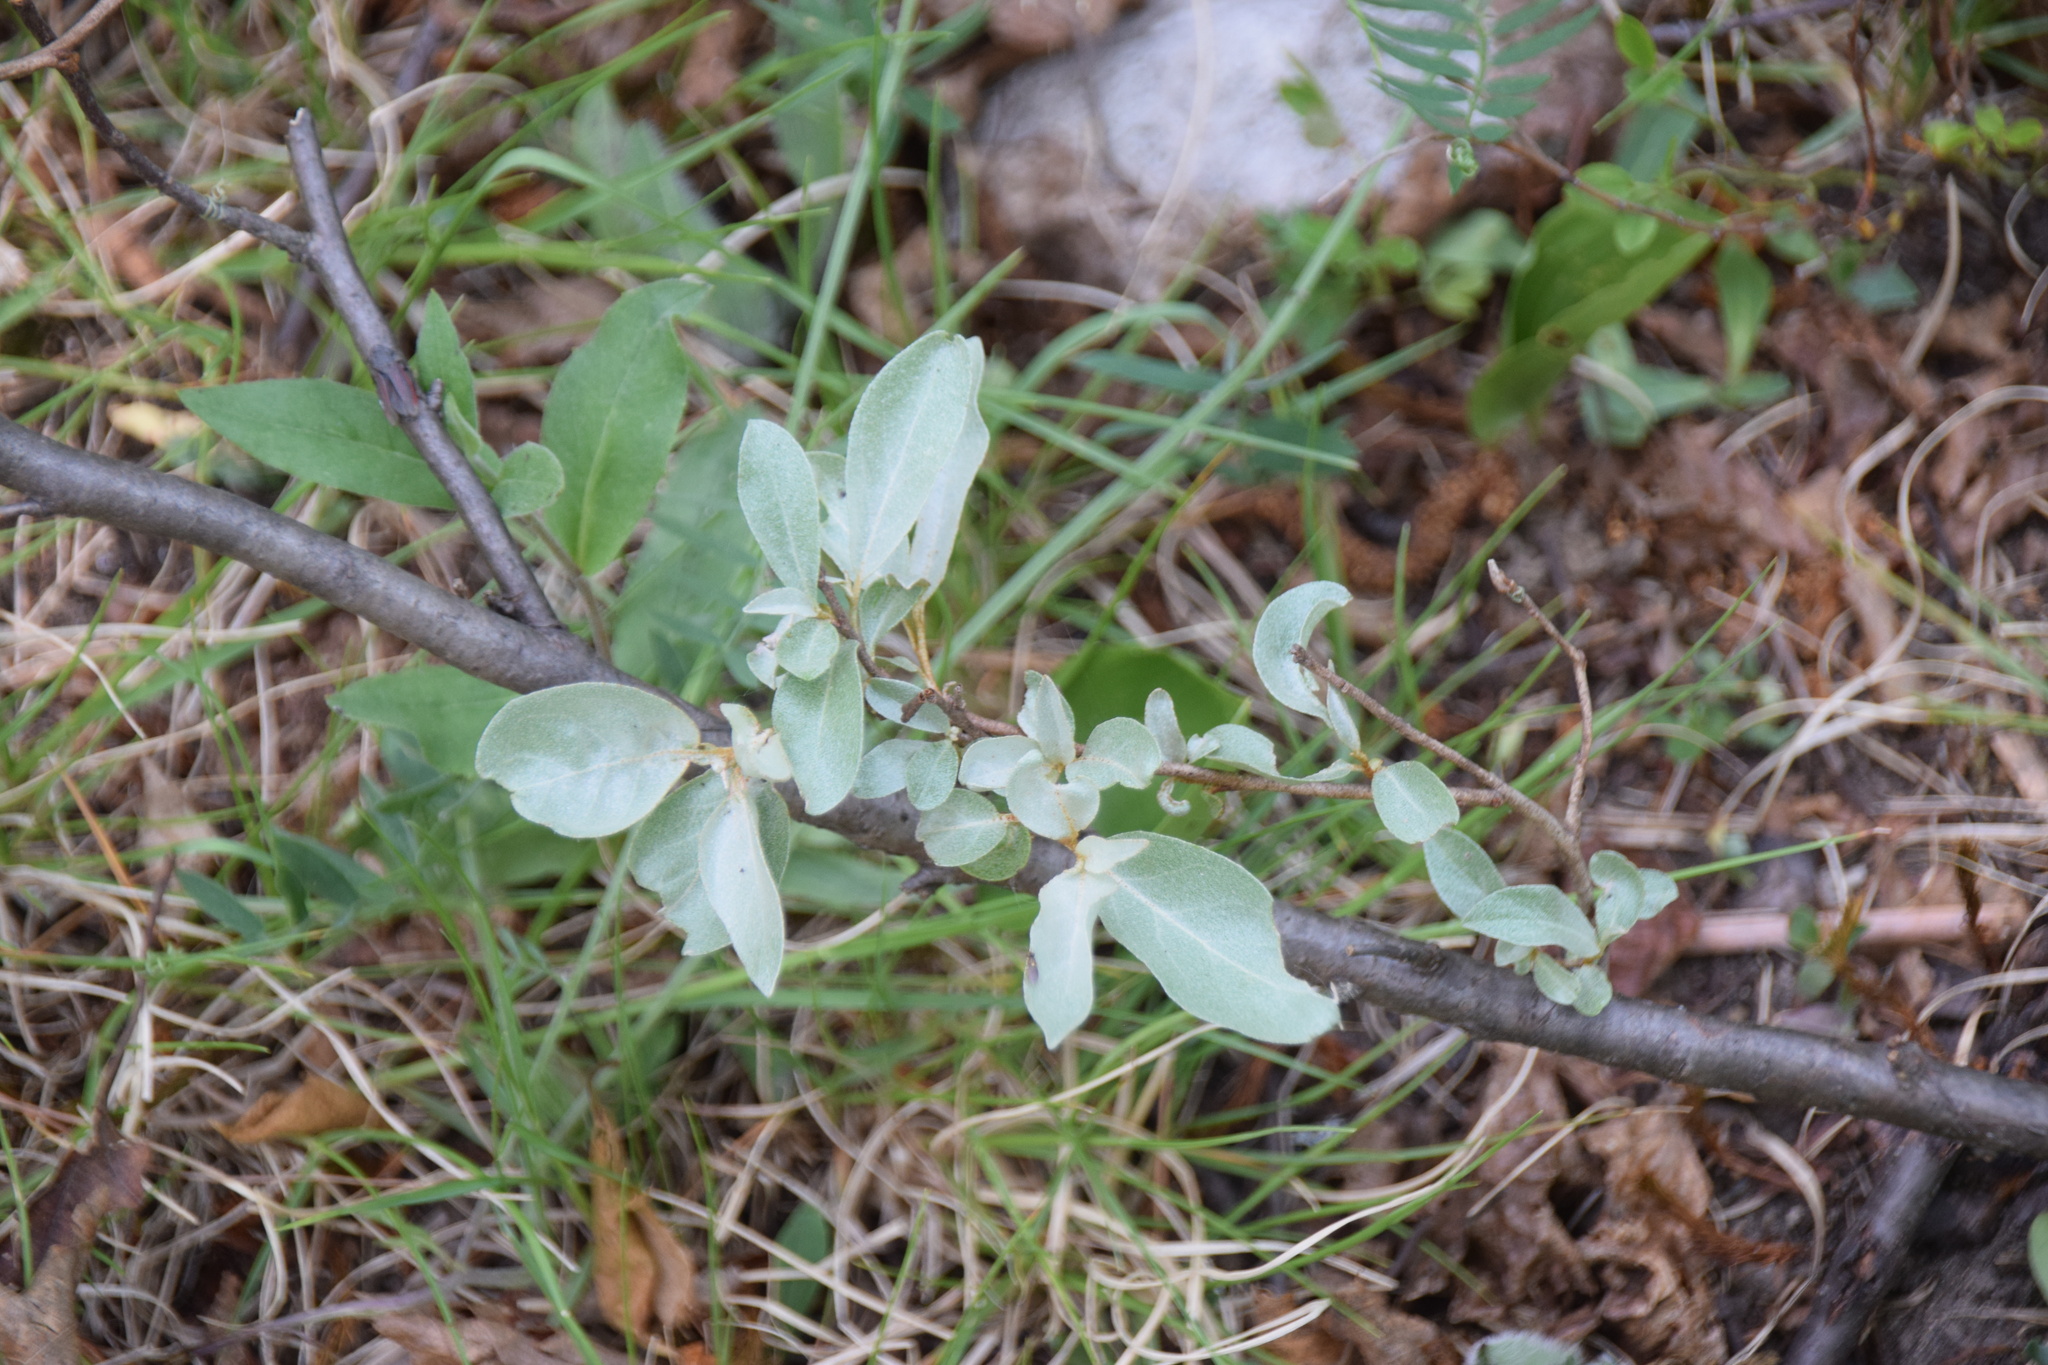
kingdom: Plantae
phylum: Tracheophyta
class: Magnoliopsida
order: Rosales
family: Elaeagnaceae
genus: Elaeagnus
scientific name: Elaeagnus commutata
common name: Silverberry
